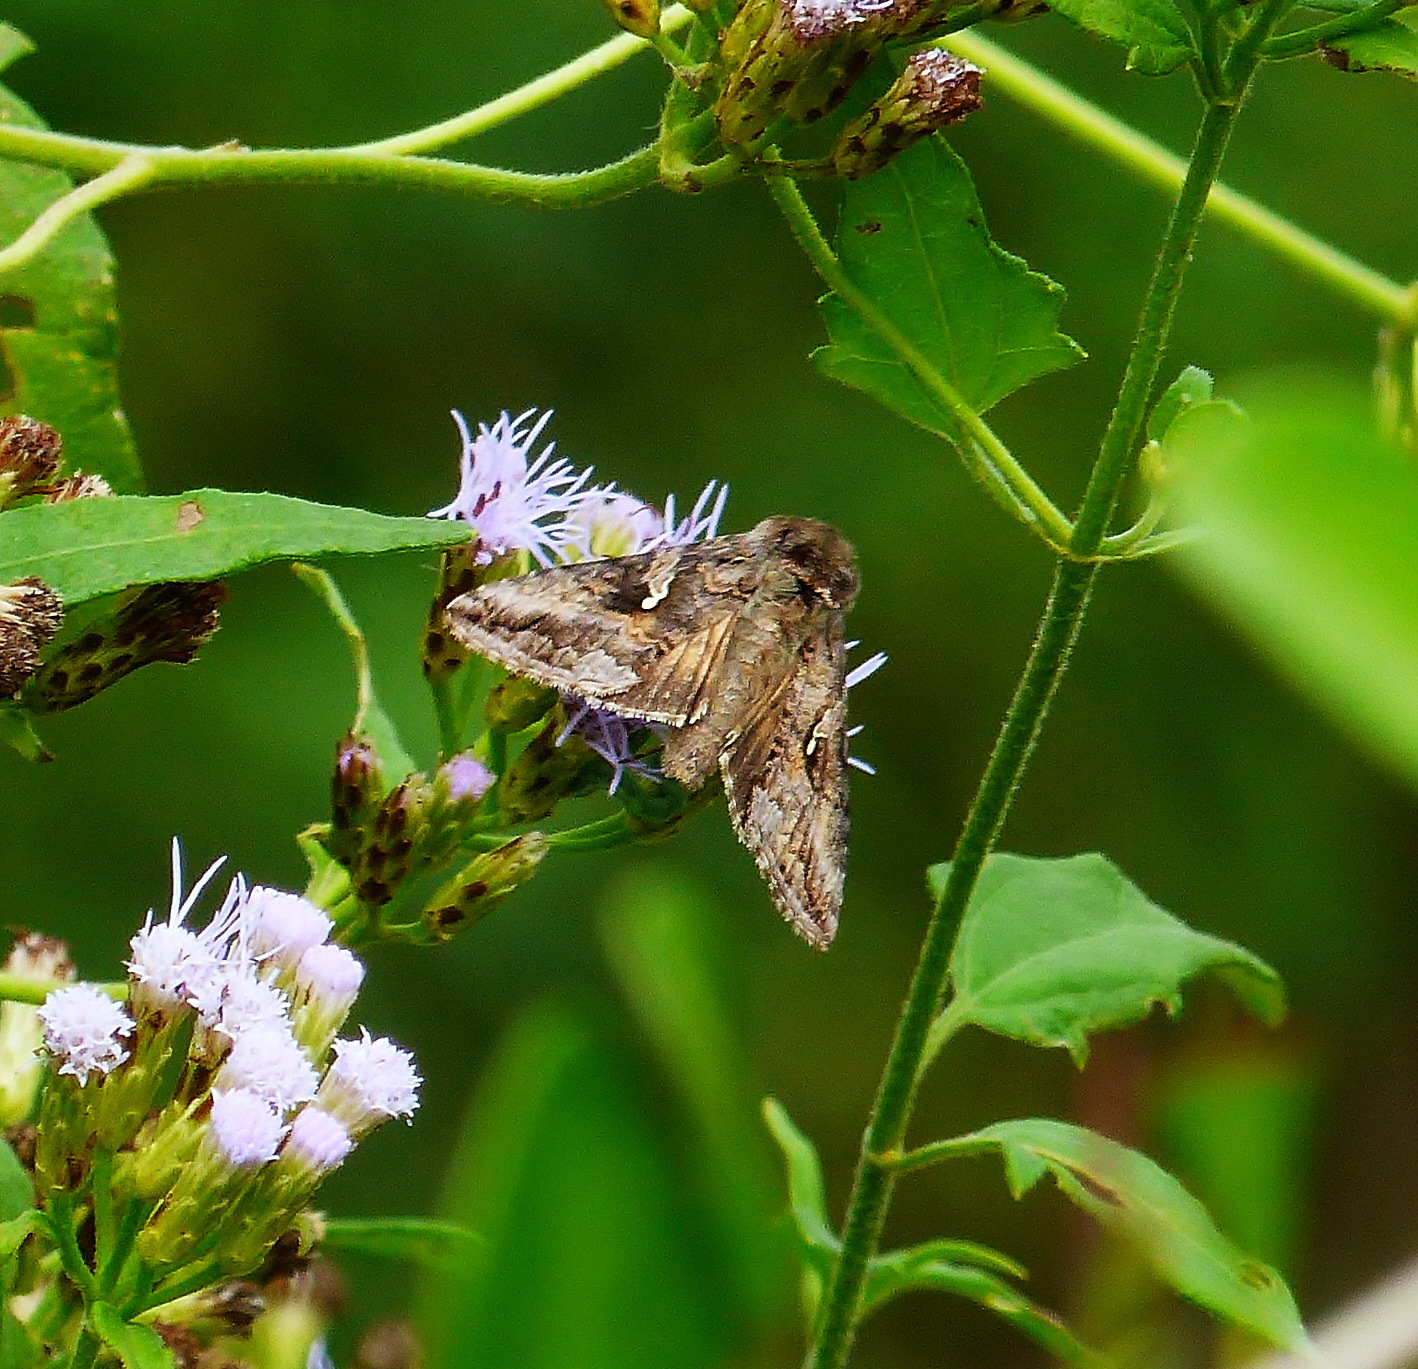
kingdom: Animalia
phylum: Arthropoda
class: Insecta
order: Lepidoptera
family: Noctuidae
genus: Rachiplusia
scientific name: Rachiplusia ou
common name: Gray looper moth
